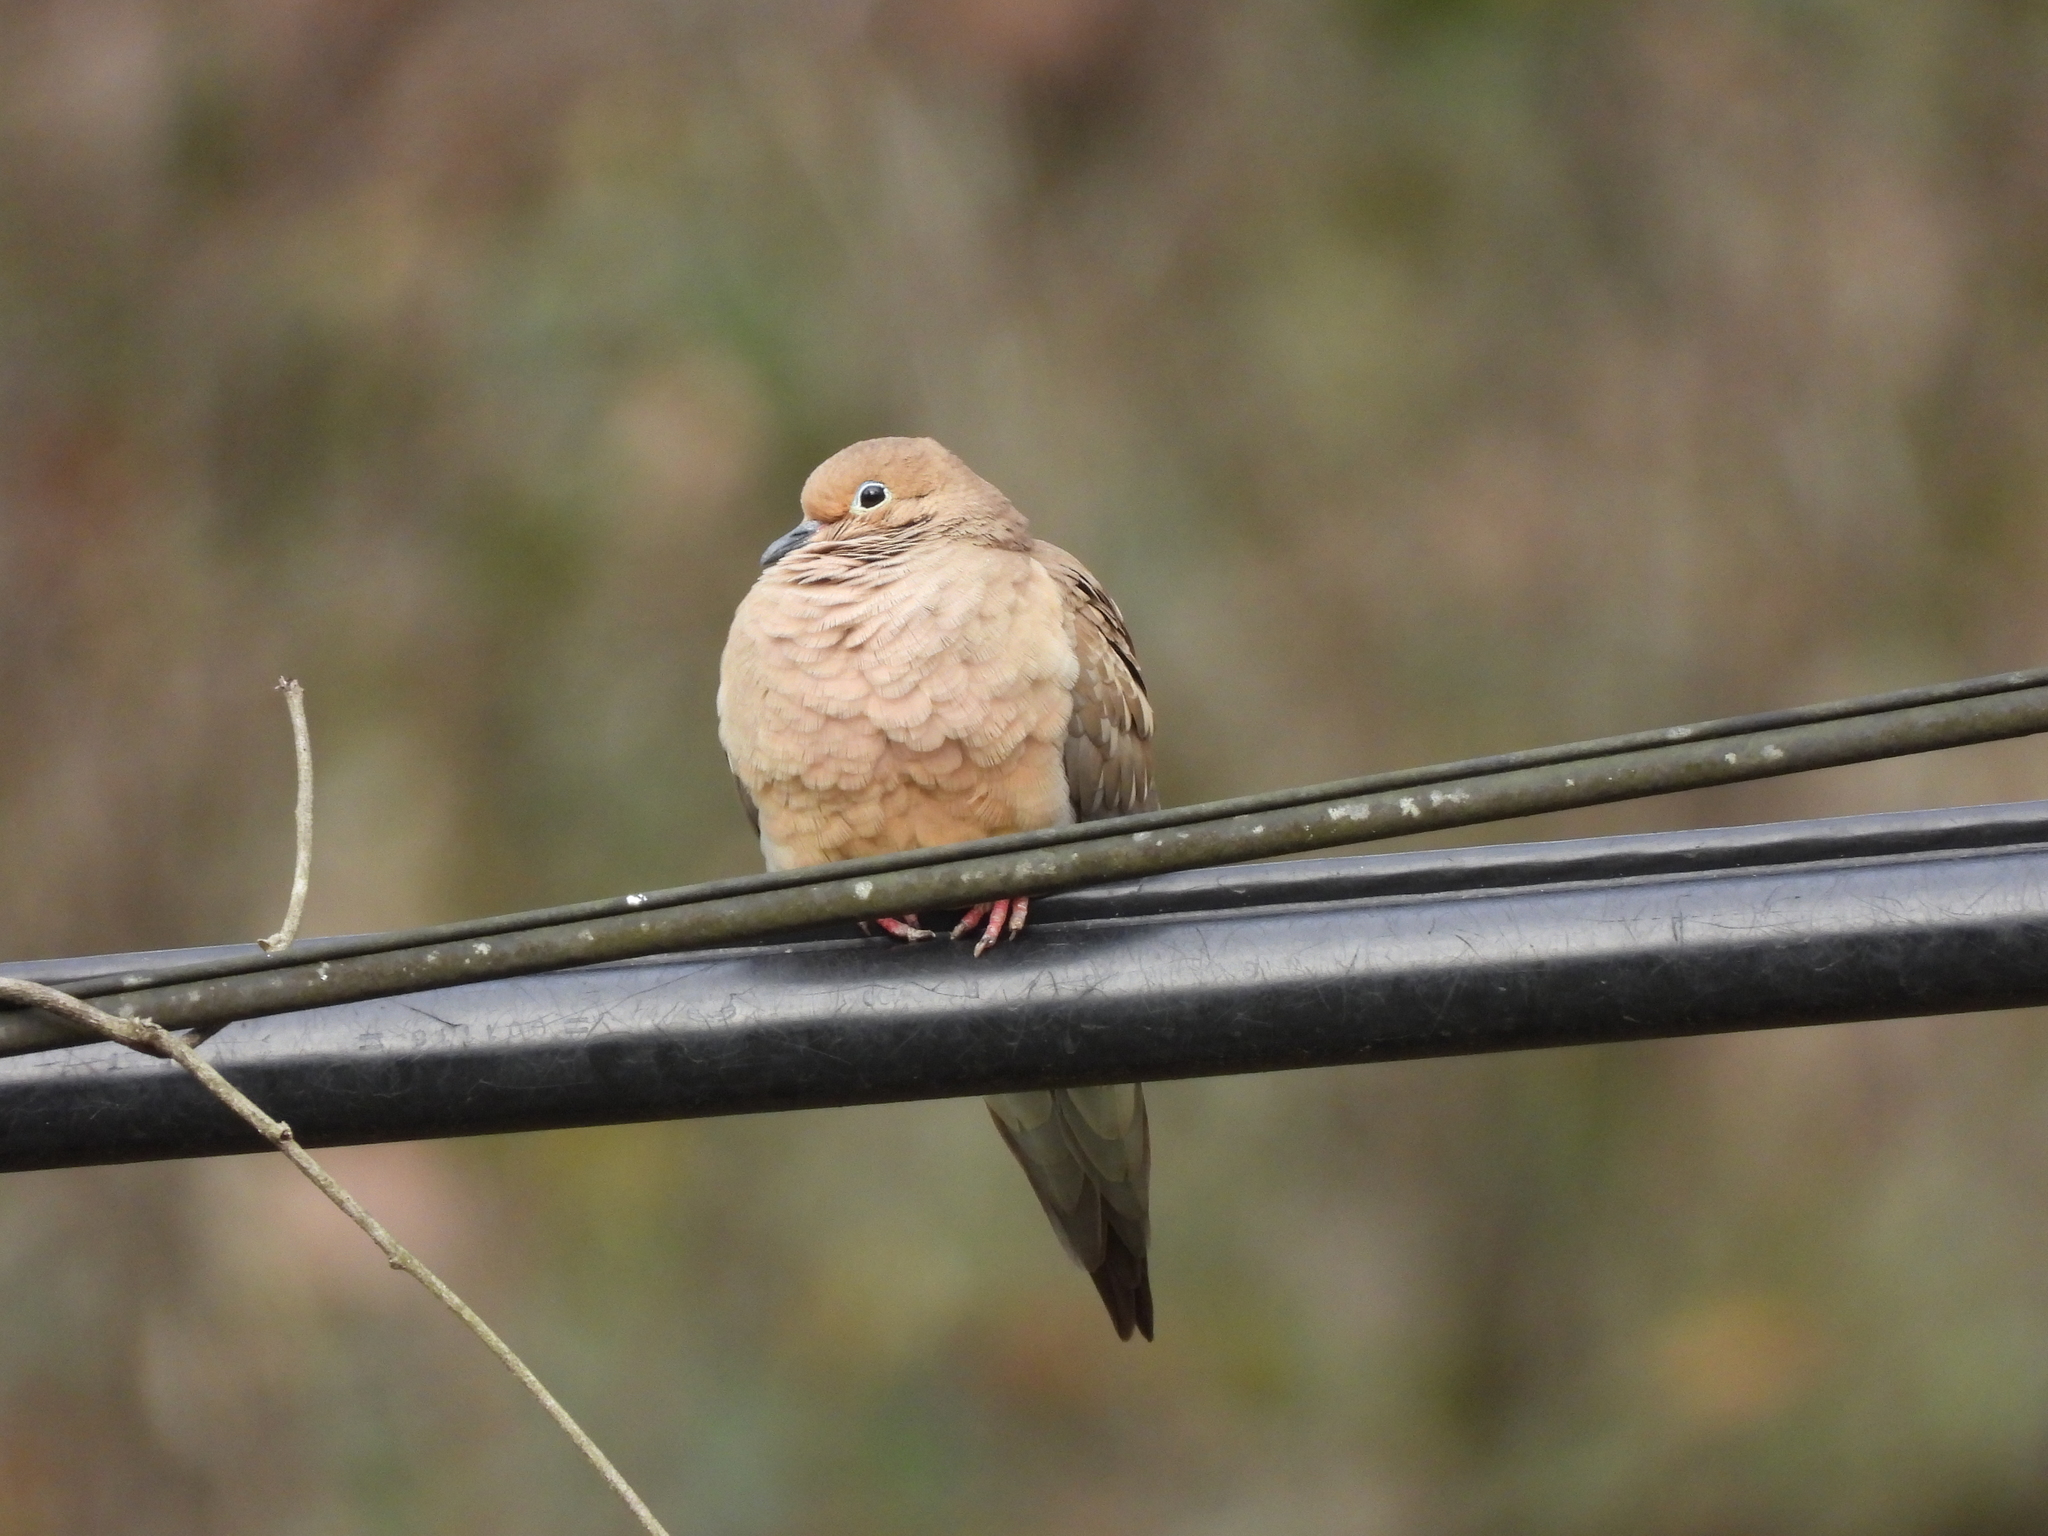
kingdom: Animalia
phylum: Chordata
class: Aves
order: Columbiformes
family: Columbidae
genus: Zenaida
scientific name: Zenaida macroura
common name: Mourning dove
